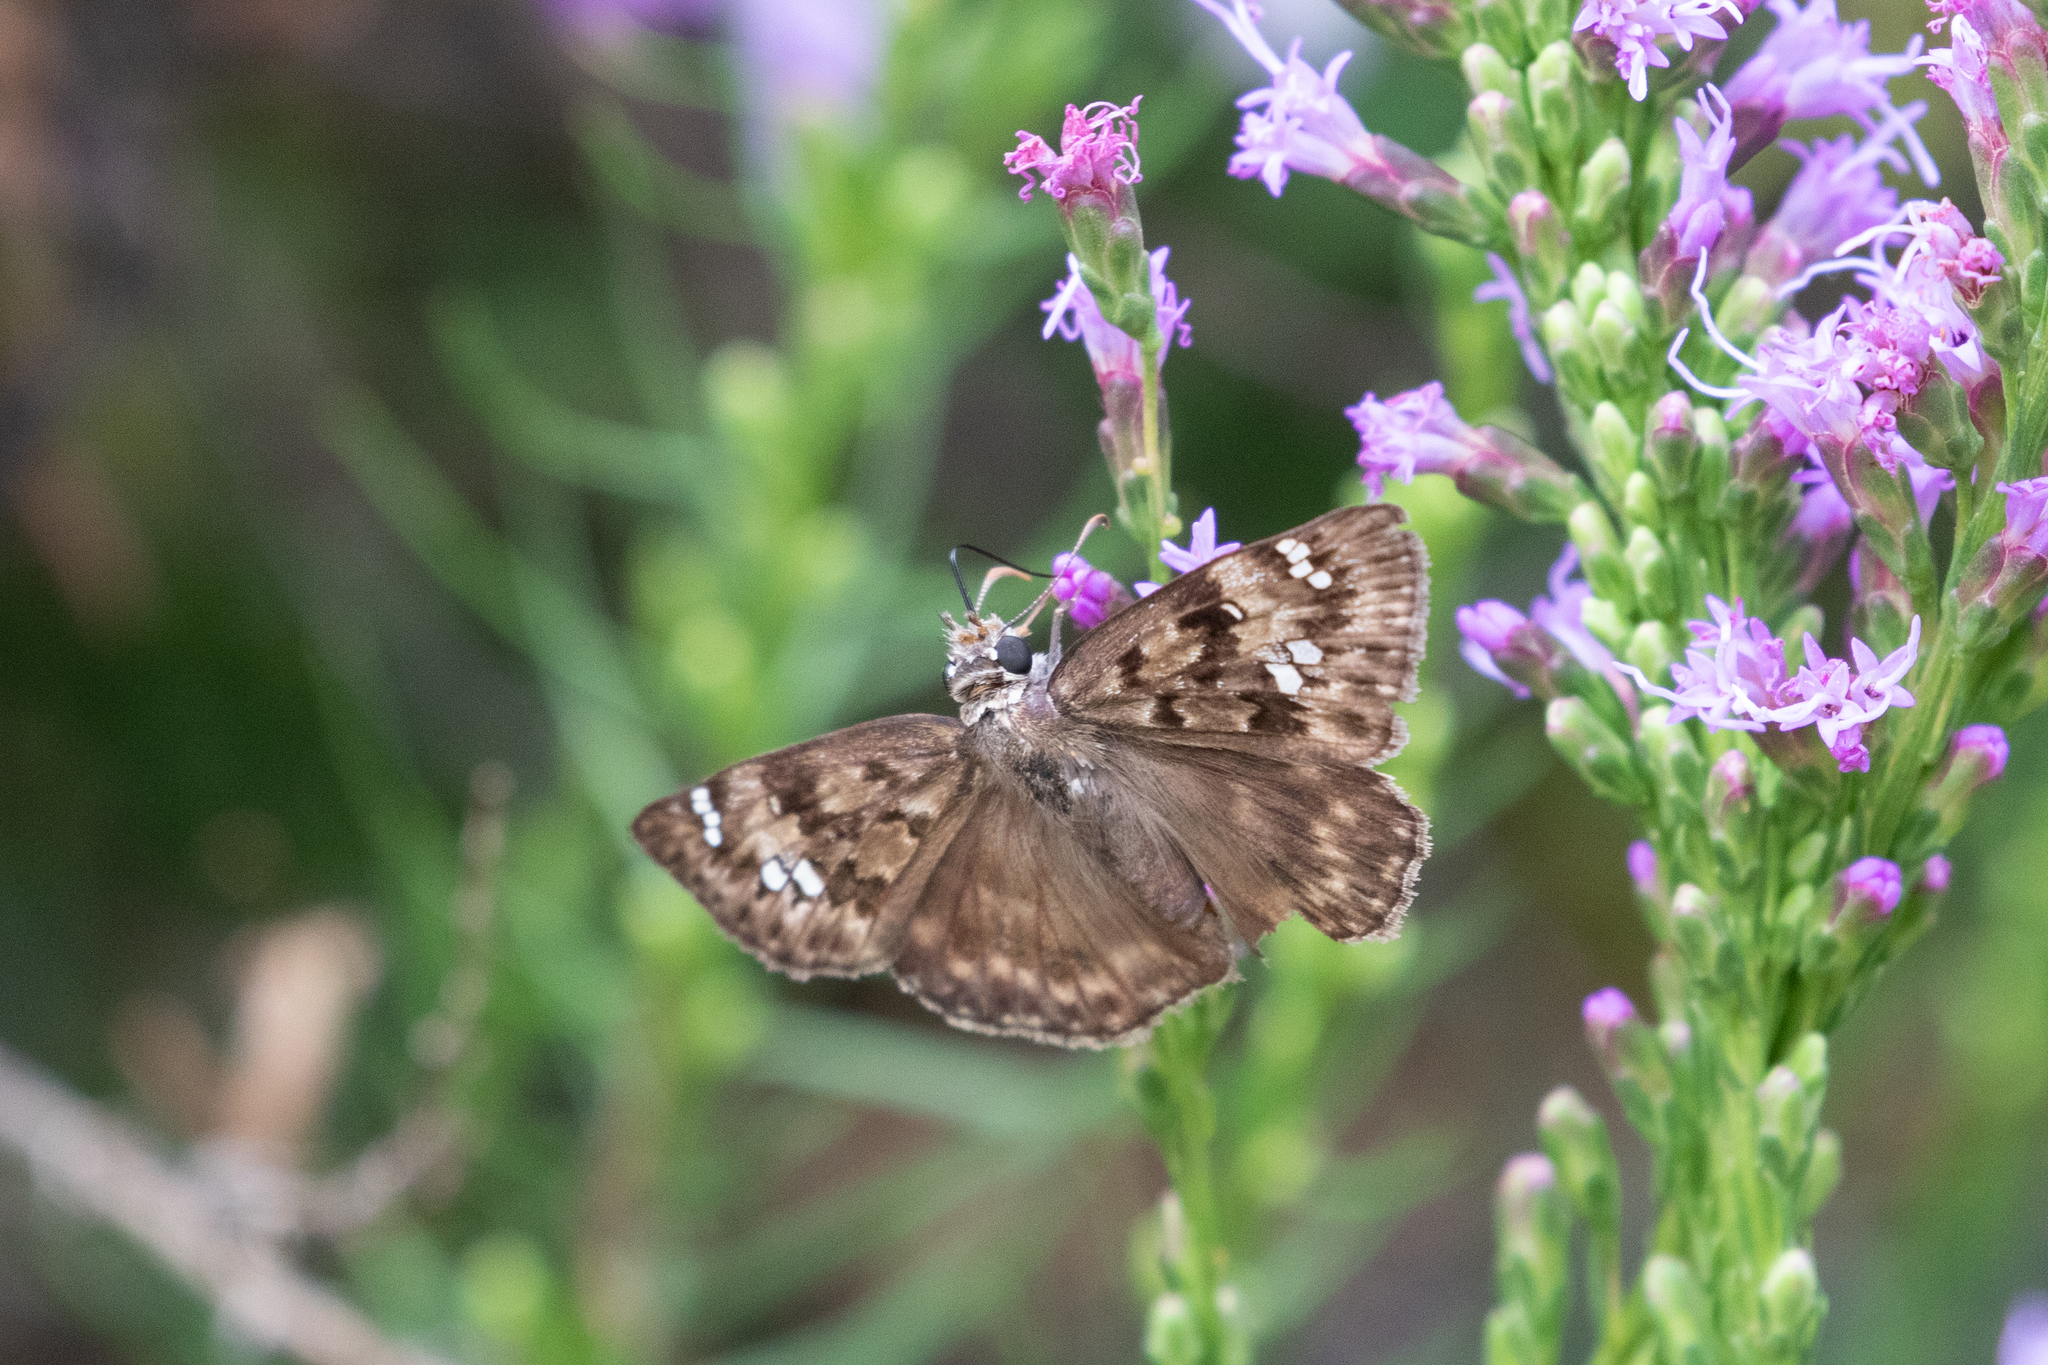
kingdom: Animalia
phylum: Arthropoda
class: Insecta
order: Lepidoptera
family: Hesperiidae
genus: Erynnis
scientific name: Erynnis horatius
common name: Horace's duskywing
